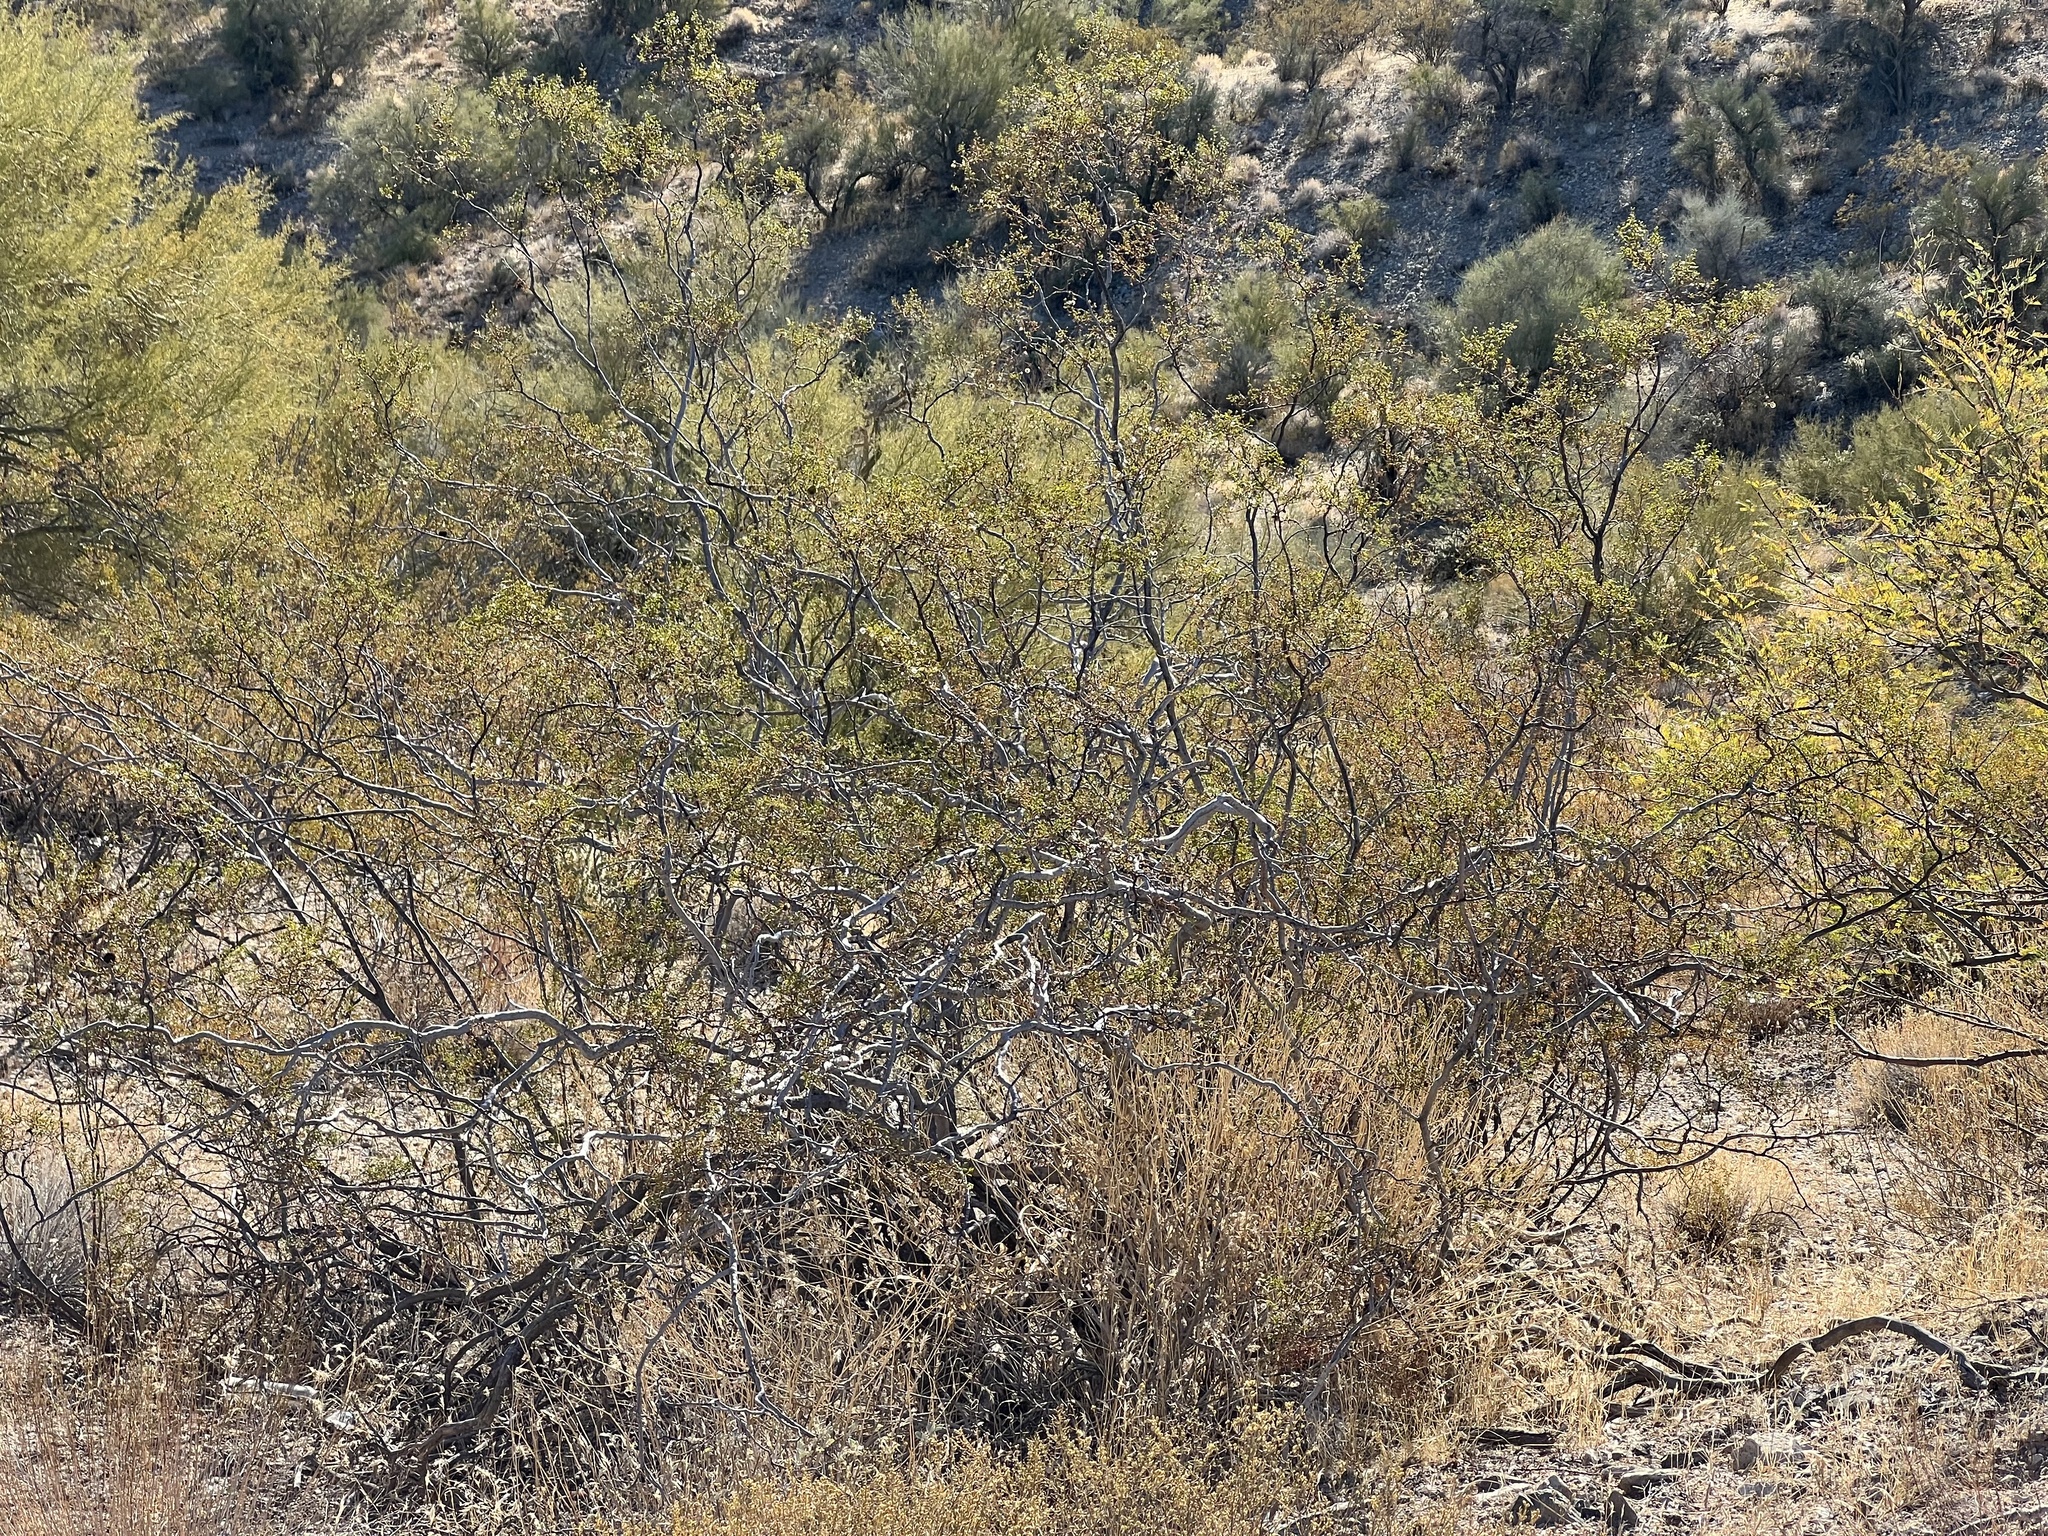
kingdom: Plantae
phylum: Tracheophyta
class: Magnoliopsida
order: Zygophyllales
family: Zygophyllaceae
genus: Larrea
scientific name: Larrea tridentata
